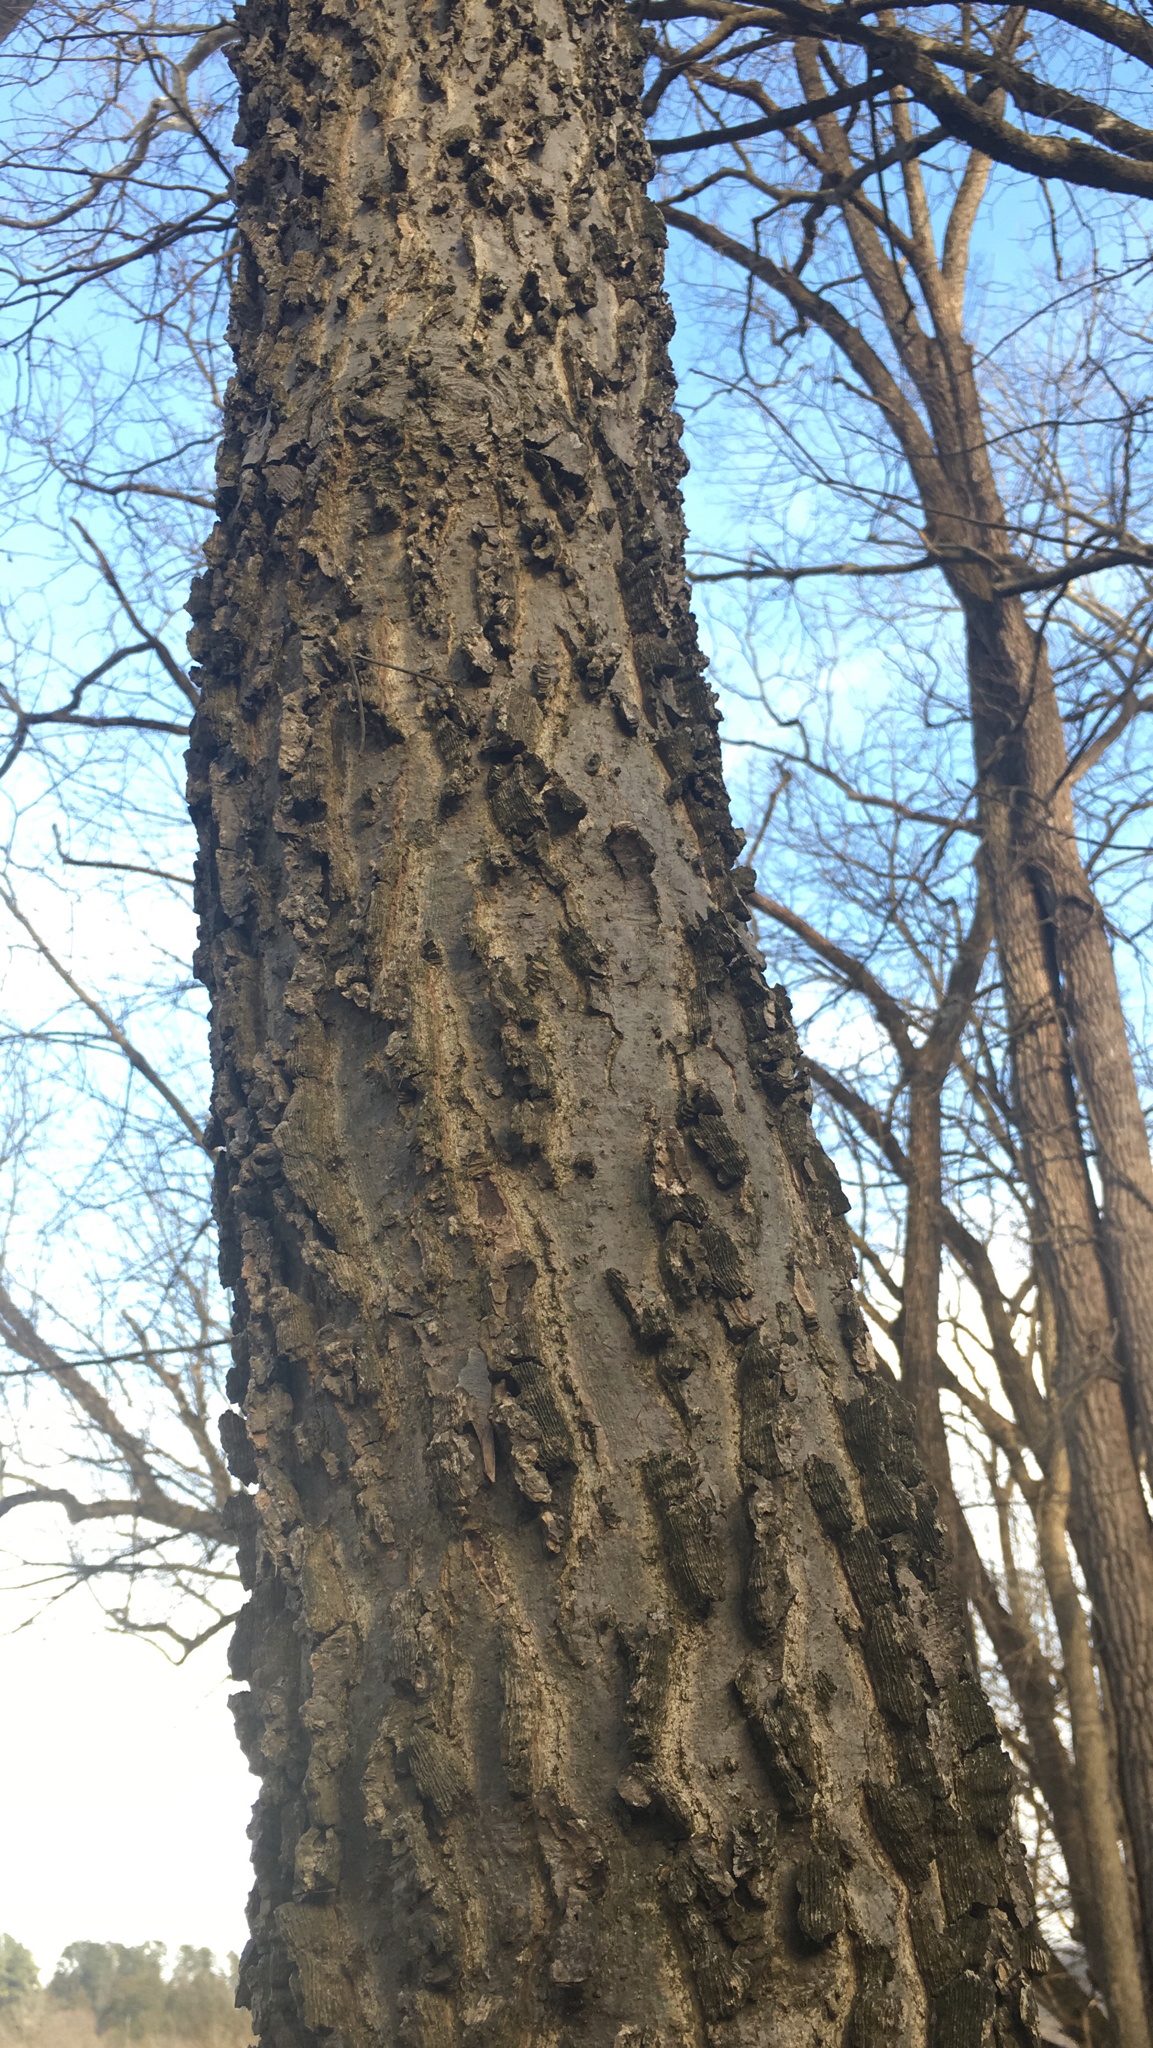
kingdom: Plantae
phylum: Tracheophyta
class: Magnoliopsida
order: Rosales
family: Cannabaceae
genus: Celtis
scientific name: Celtis occidentalis
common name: Common hackberry
